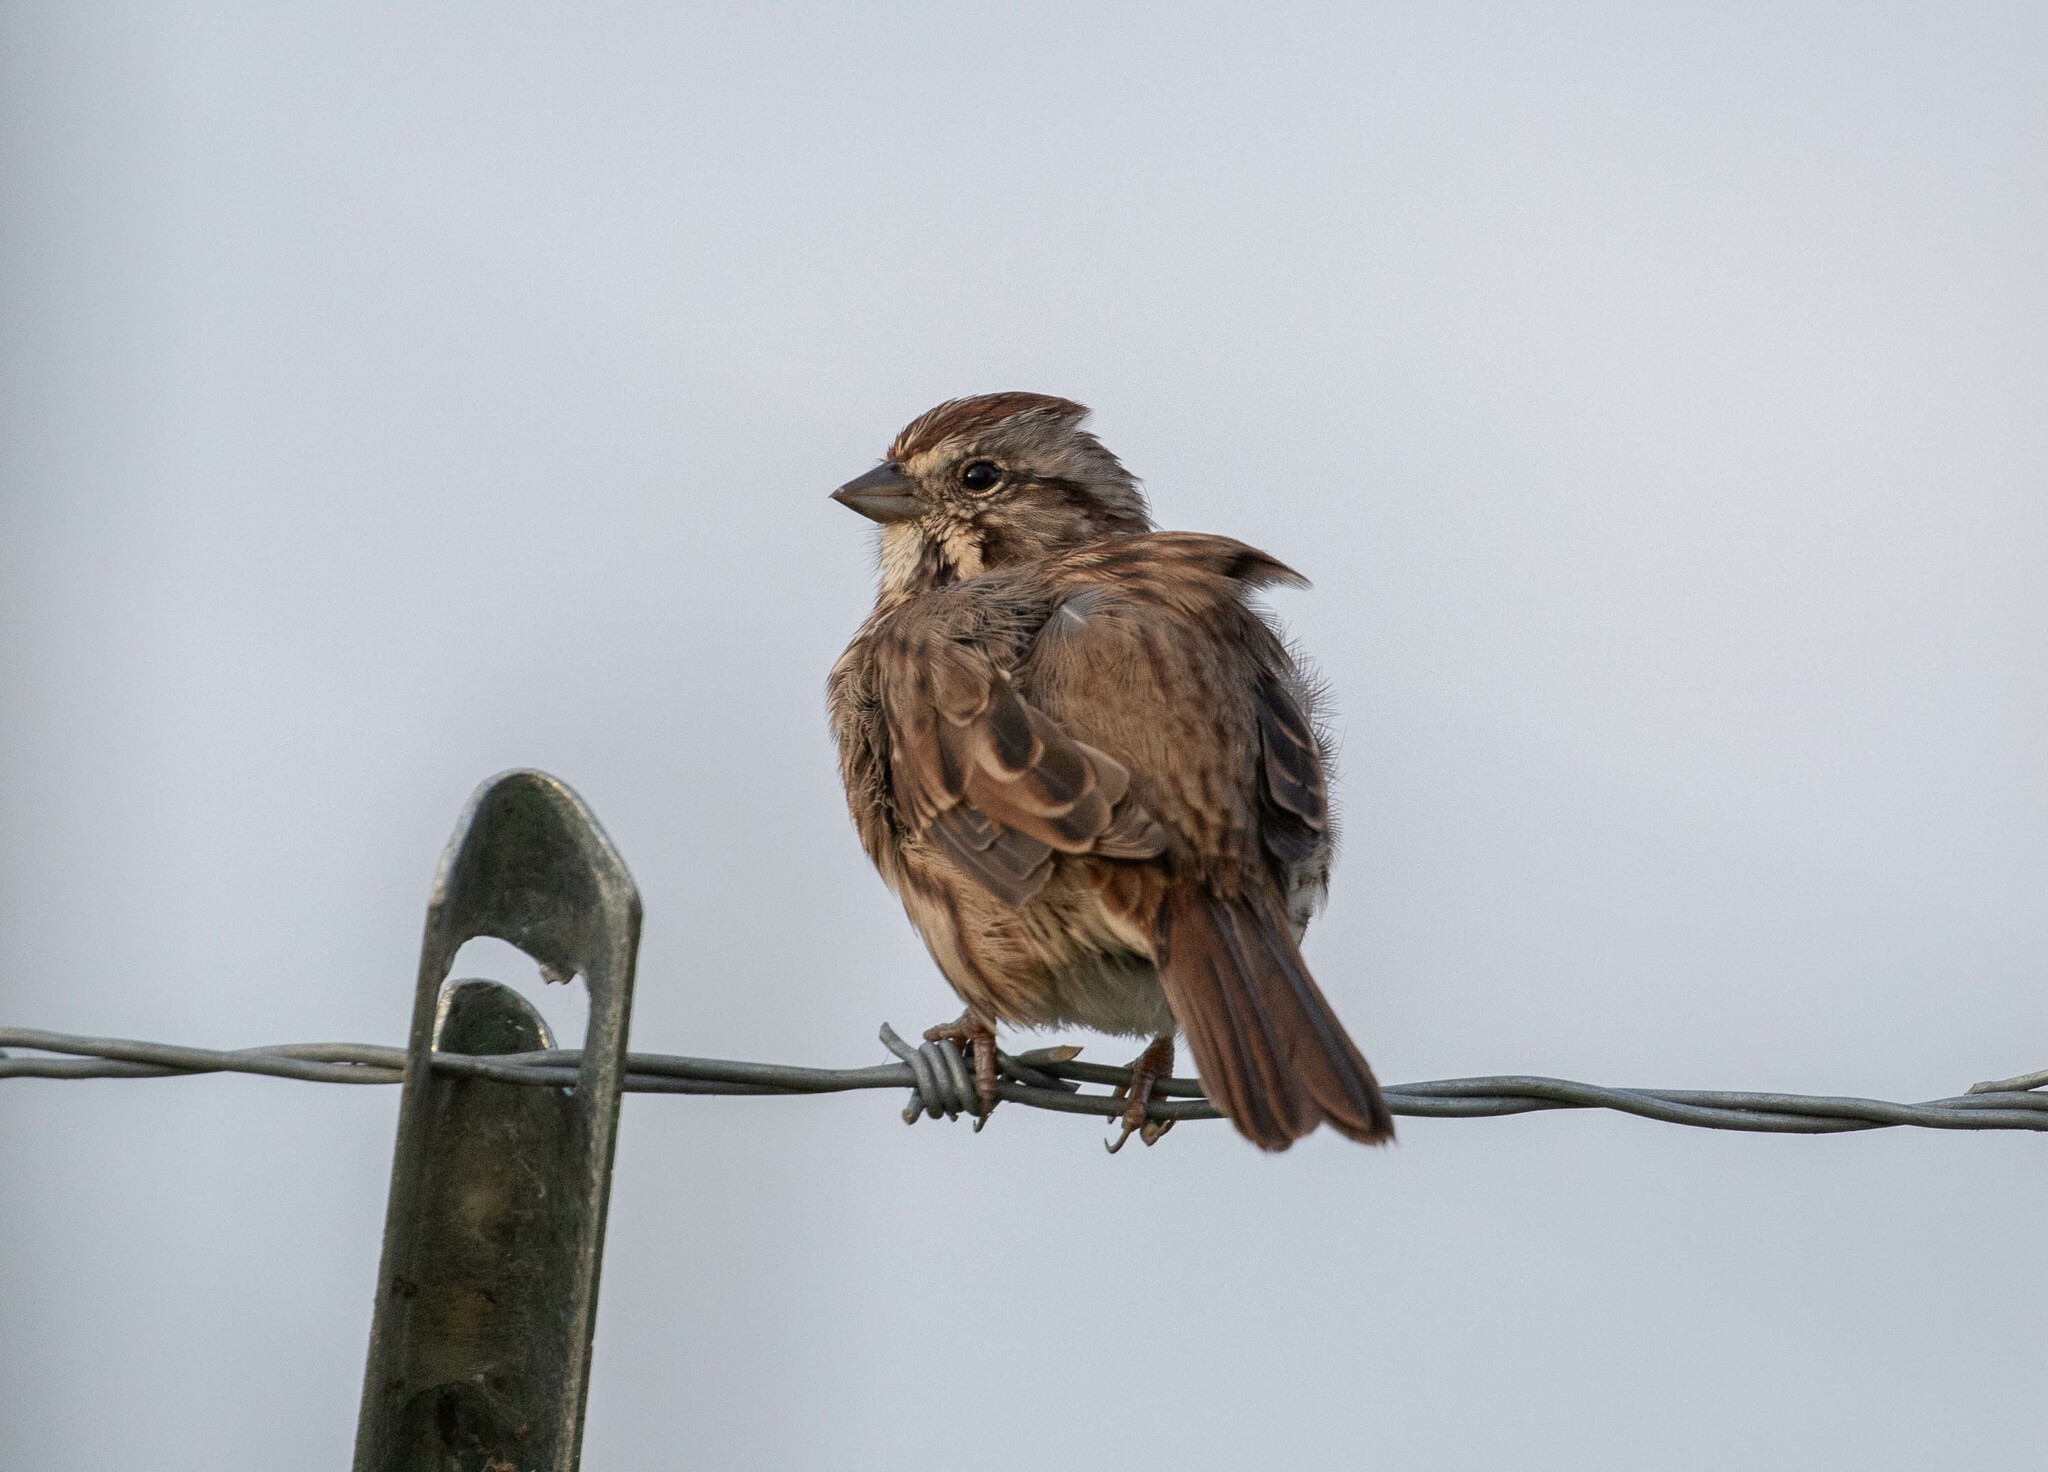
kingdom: Animalia
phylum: Chordata
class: Aves
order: Passeriformes
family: Passerellidae
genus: Melospiza
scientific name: Melospiza melodia
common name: Song sparrow
